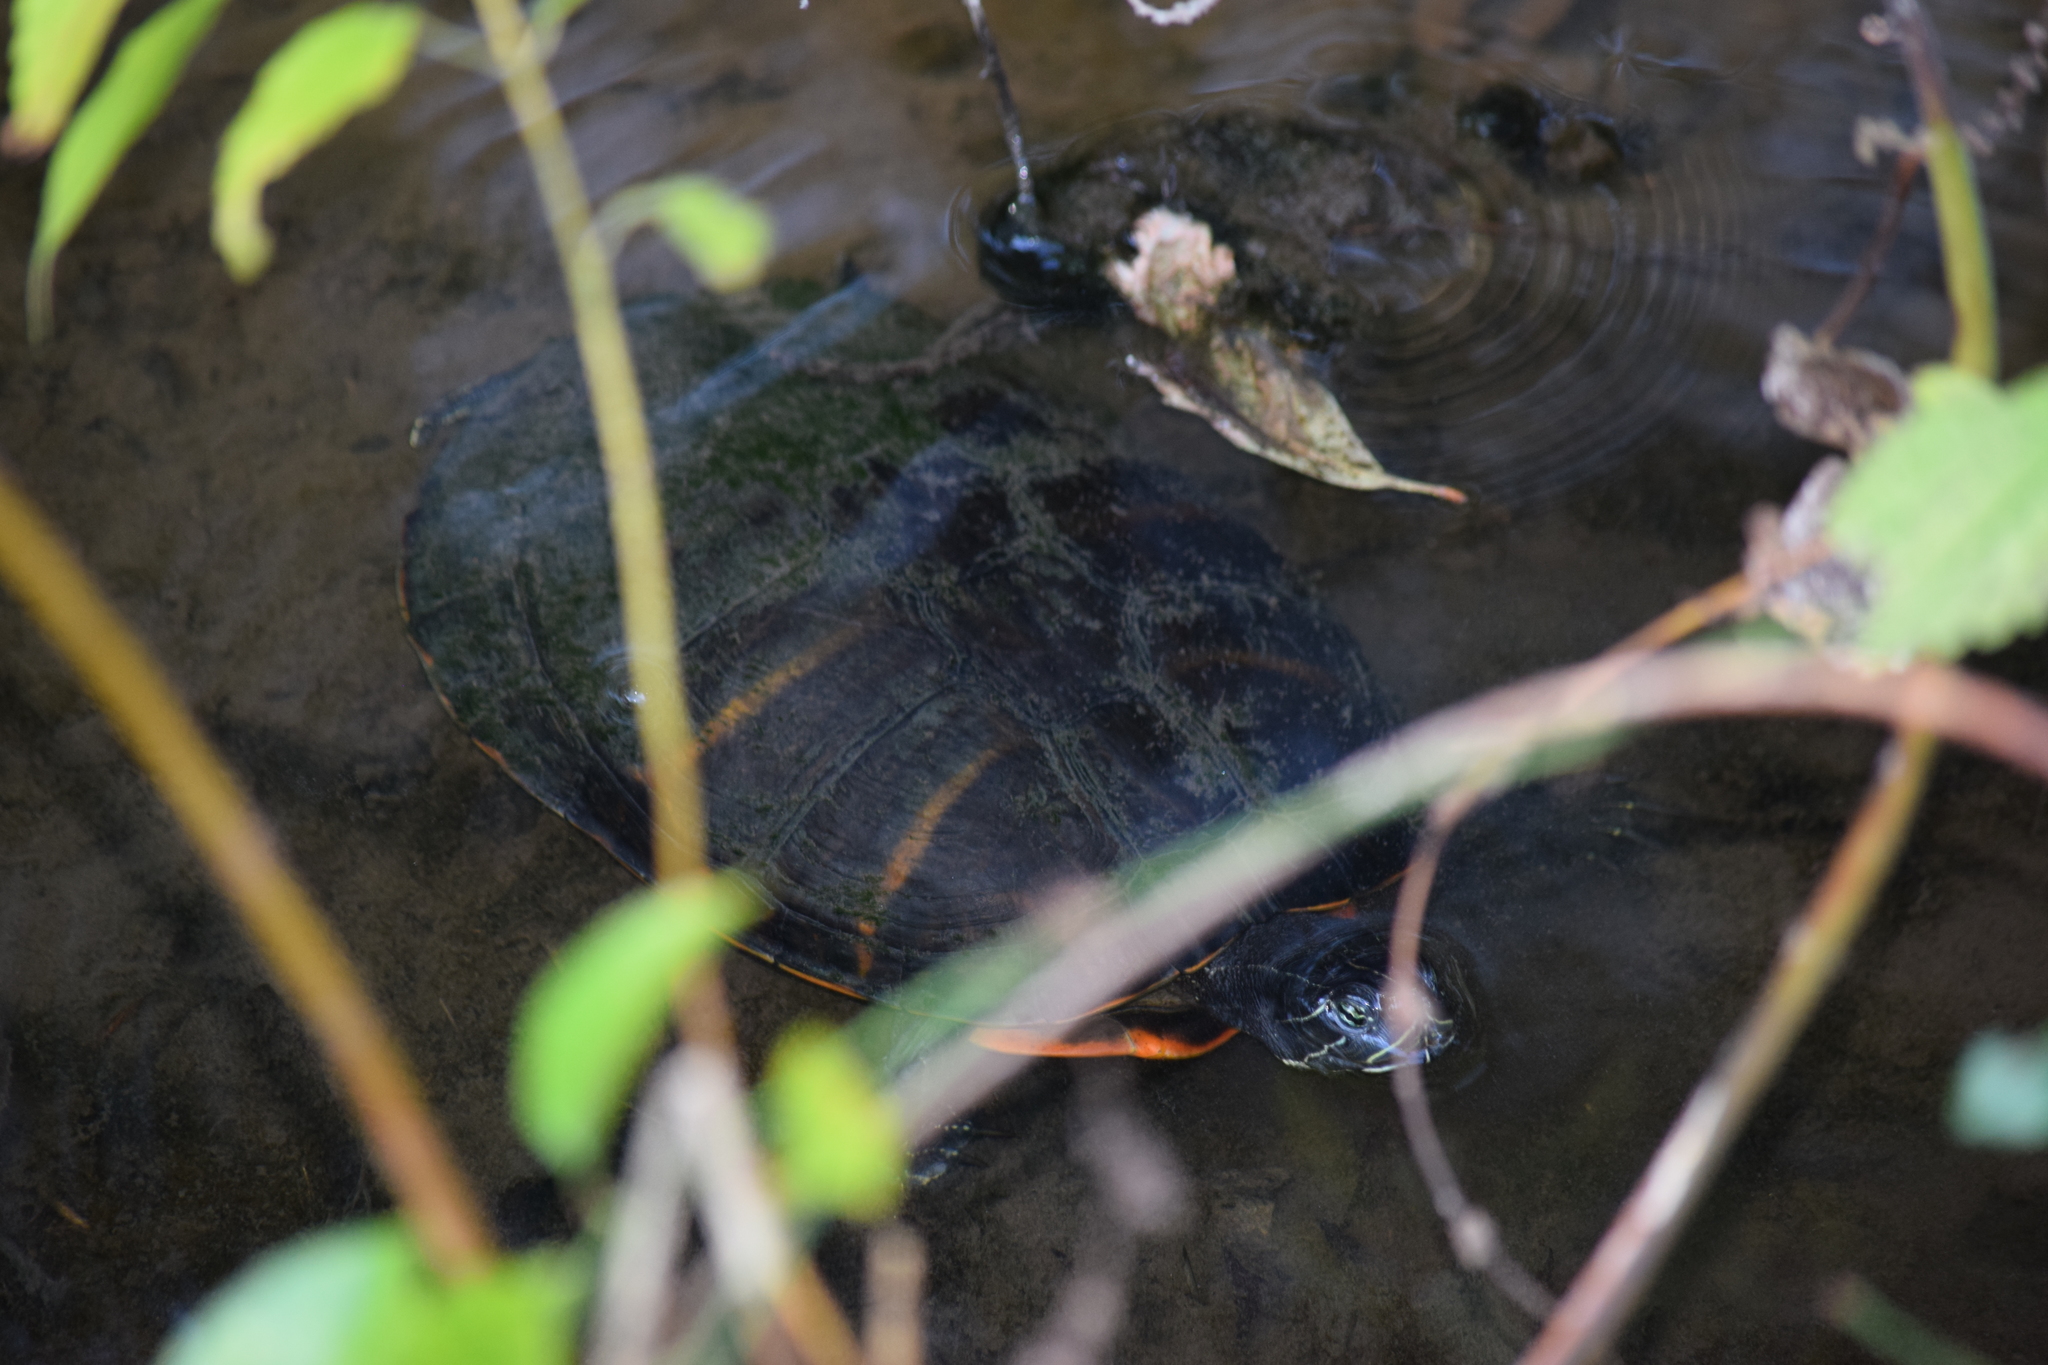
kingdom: Animalia
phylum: Chordata
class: Testudines
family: Emydidae
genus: Pseudemys
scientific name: Pseudemys rubriventris
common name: American red-bellied turtle
